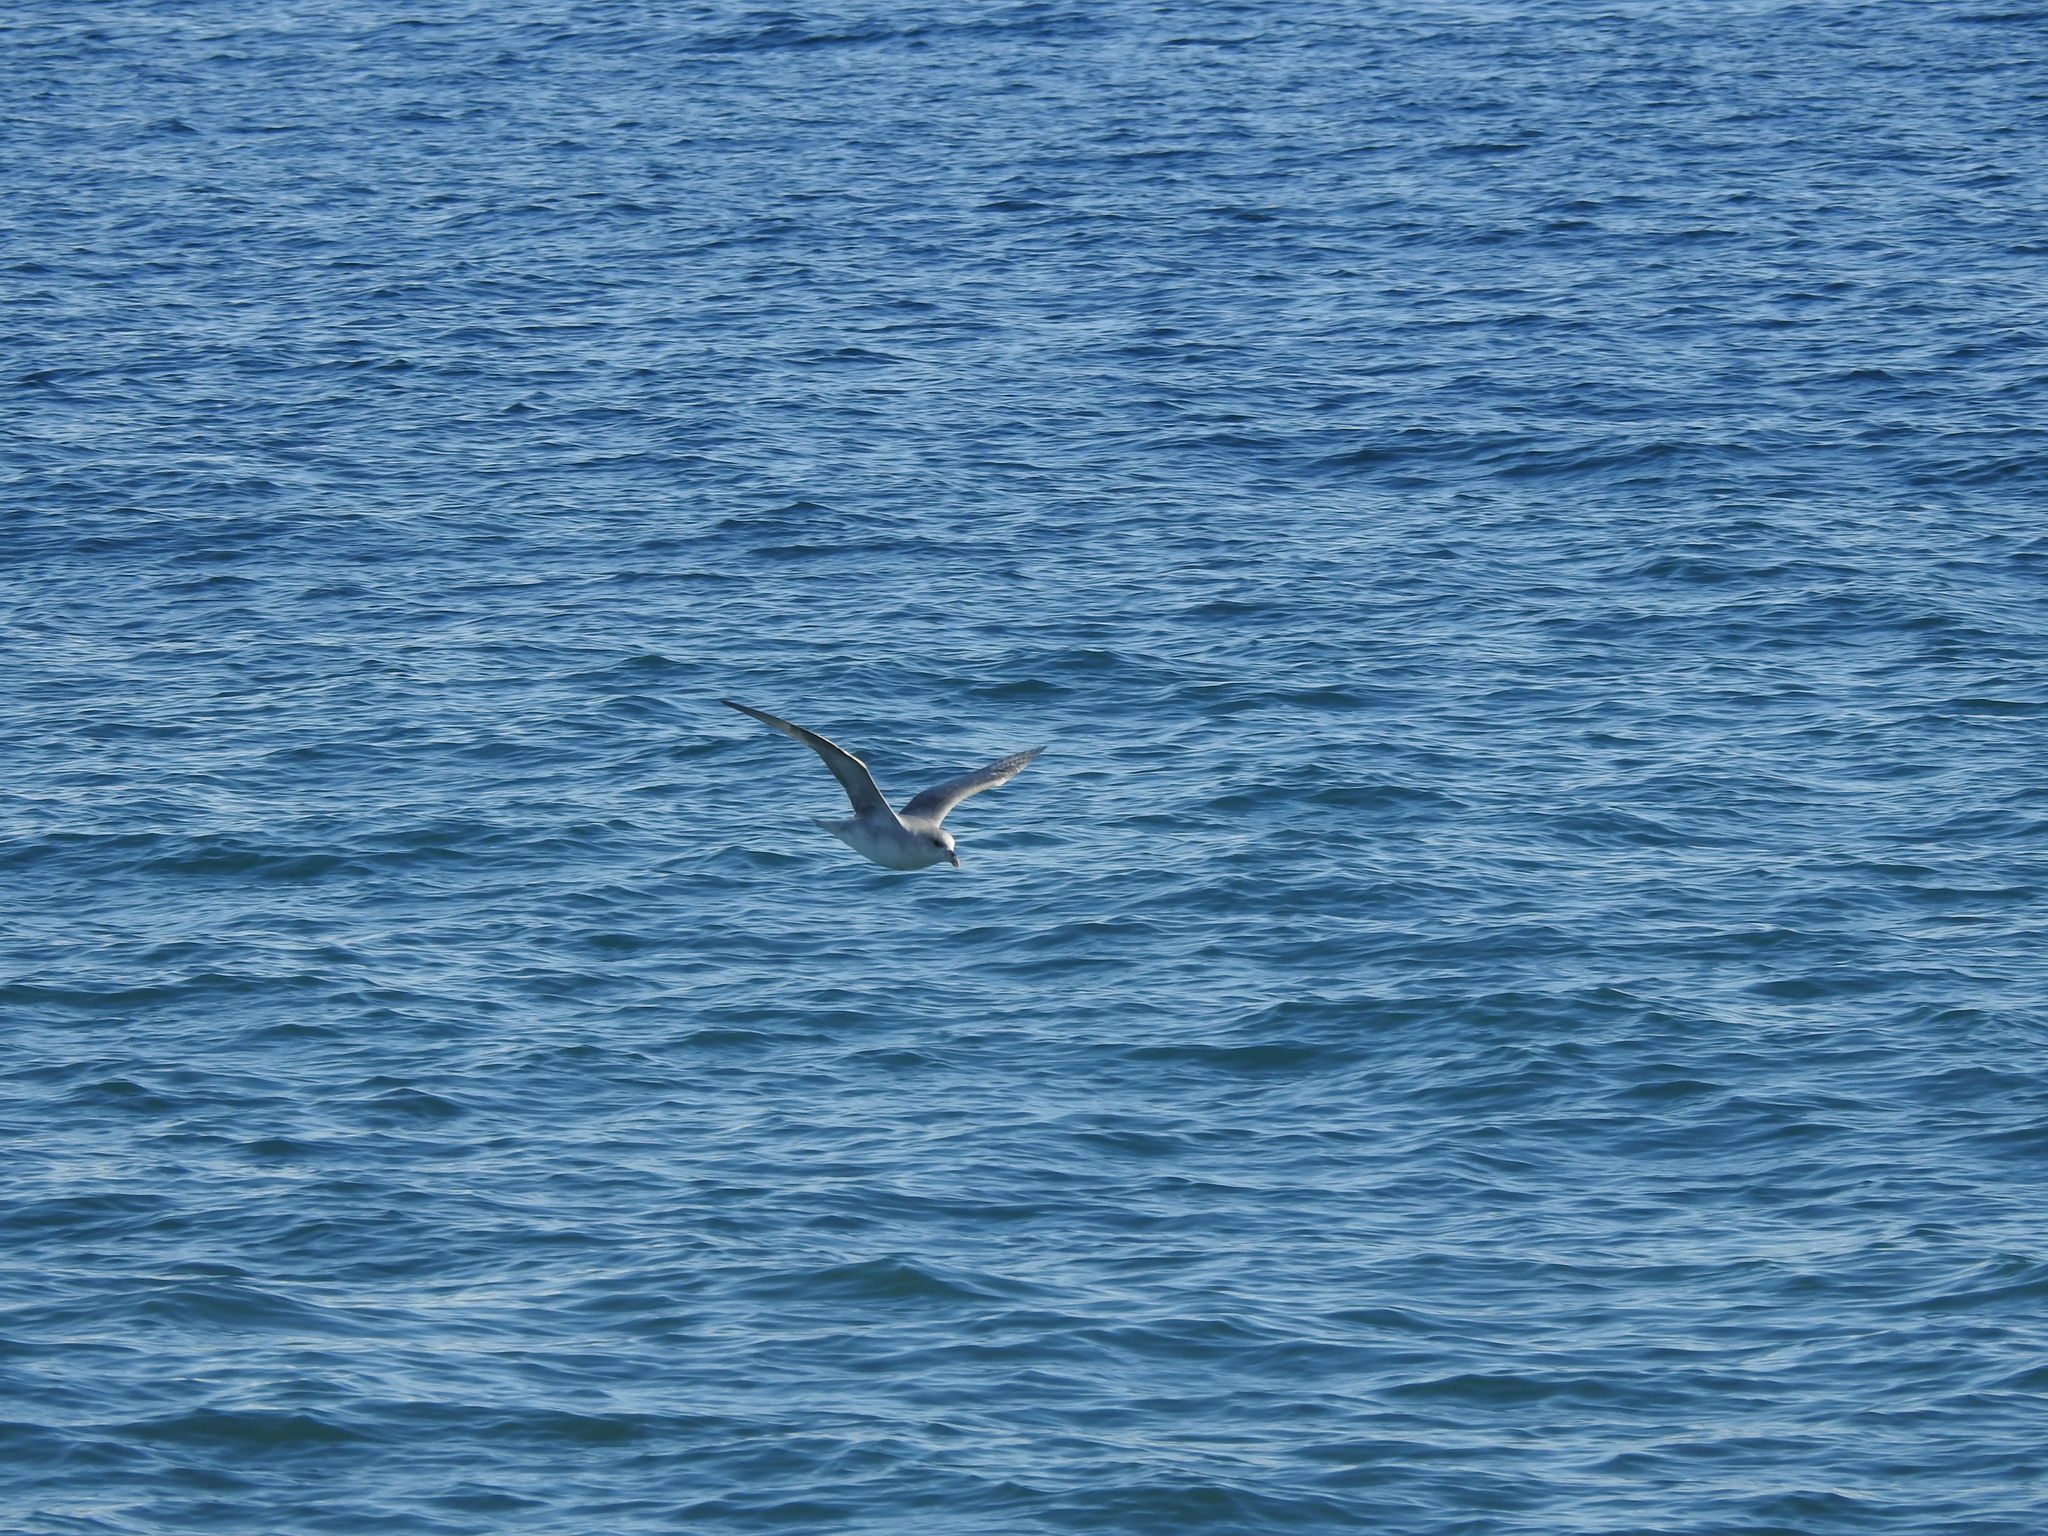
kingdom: Animalia
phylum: Chordata
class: Aves
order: Procellariiformes
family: Procellariidae
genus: Fulmarus
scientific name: Fulmarus glacialis
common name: Northern fulmar
